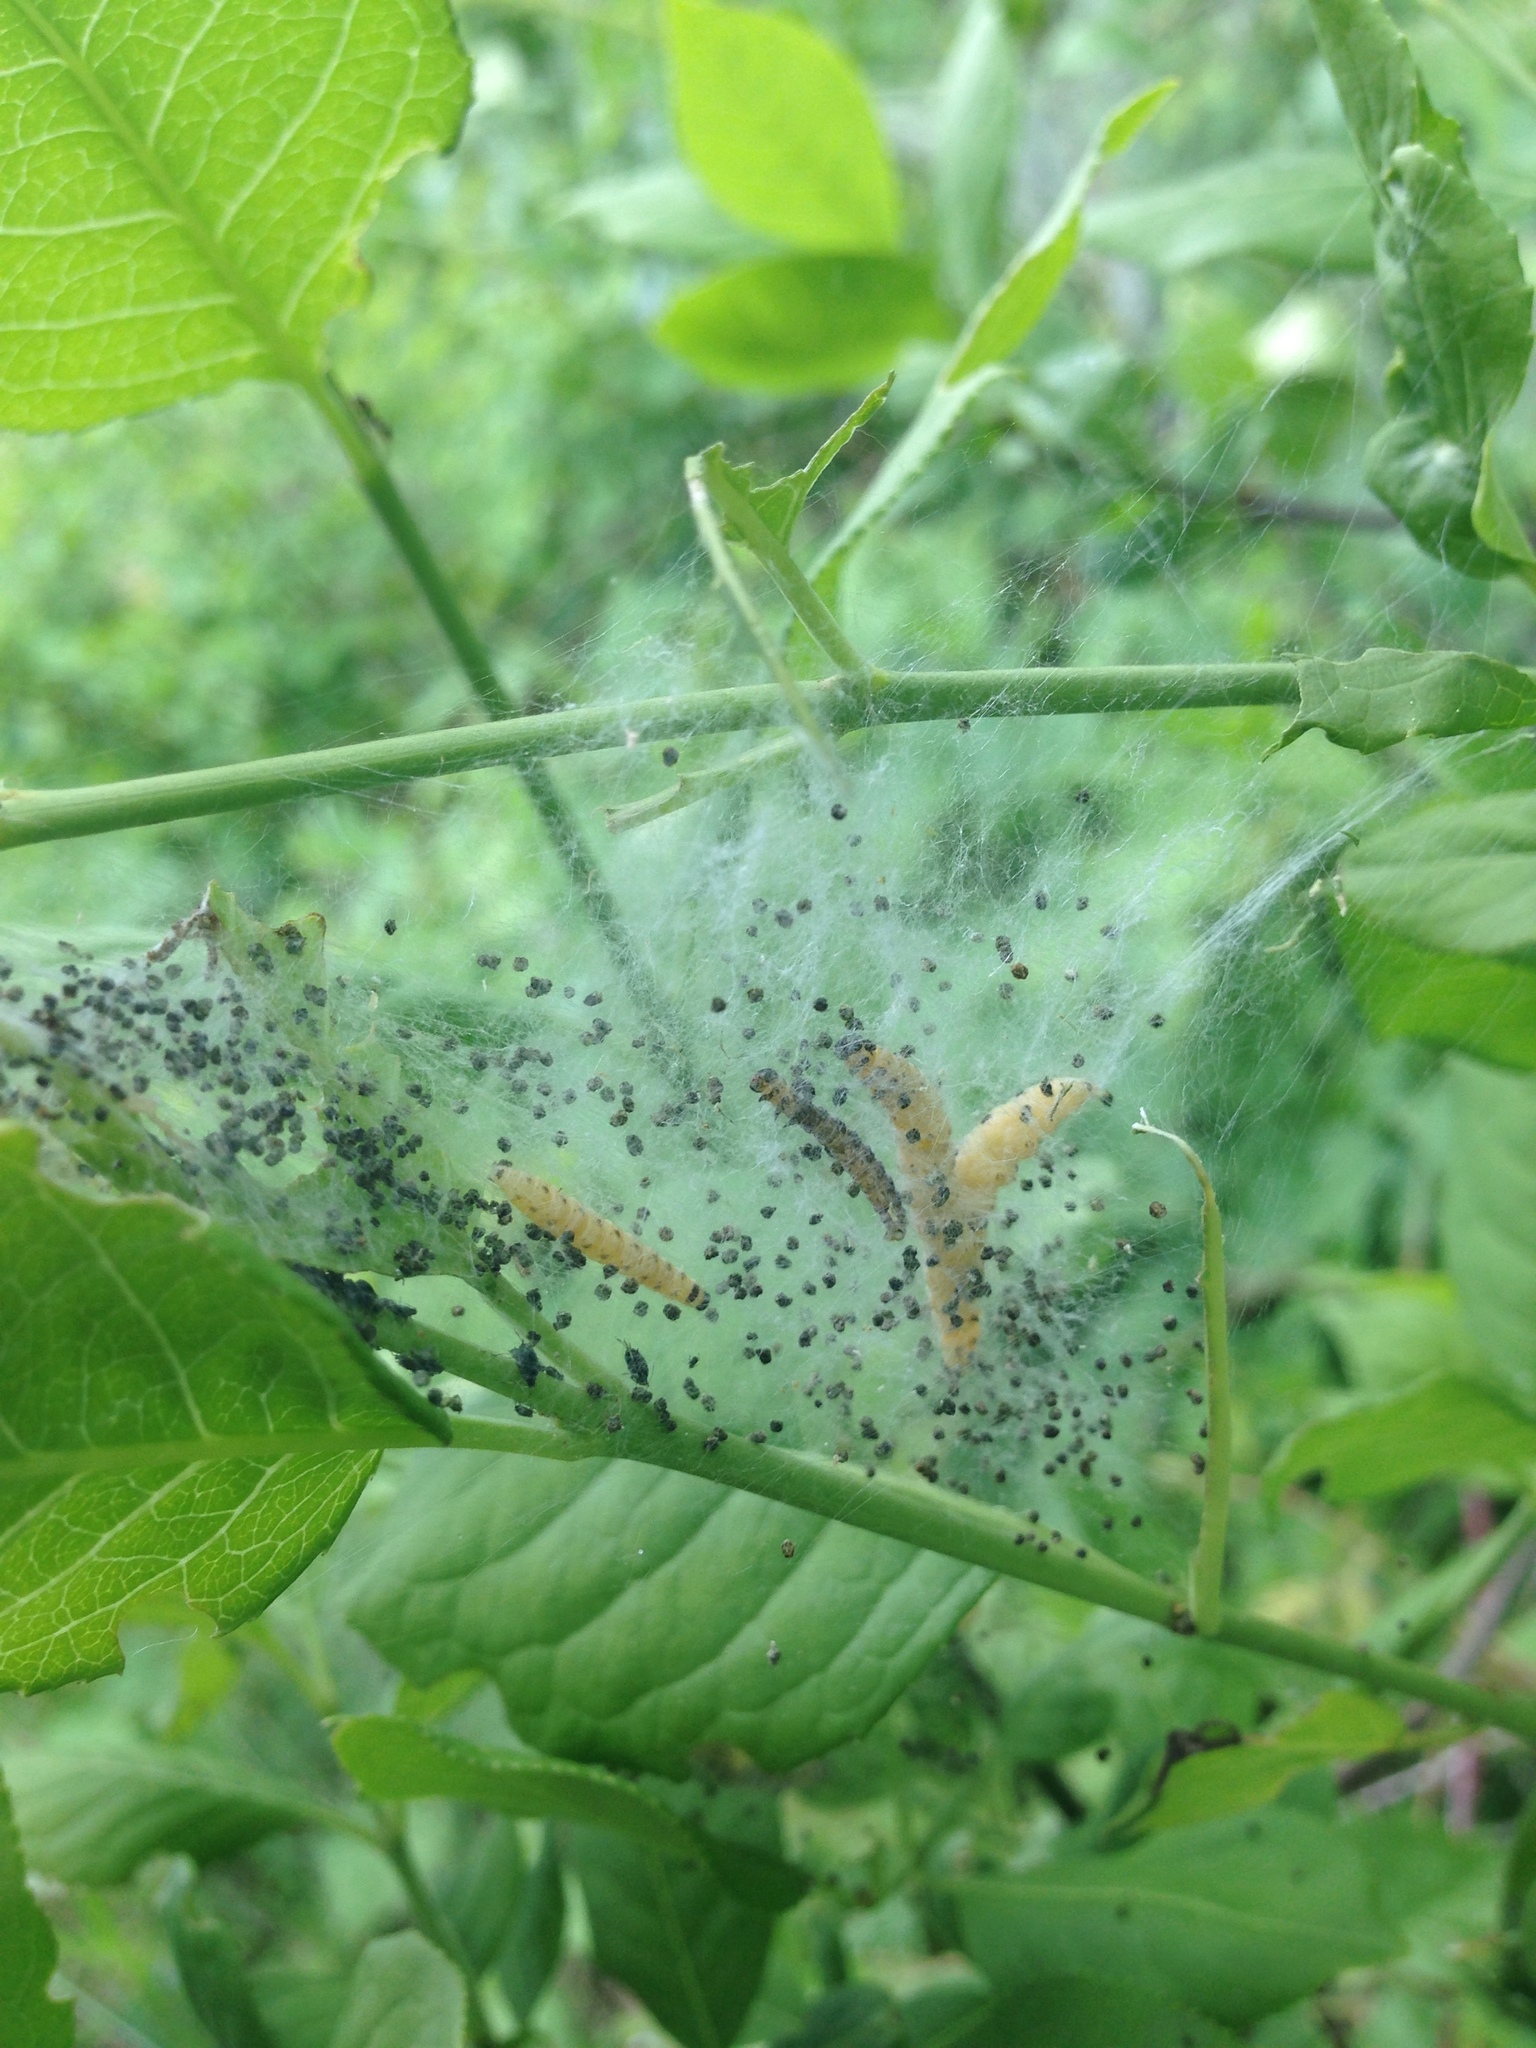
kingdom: Animalia
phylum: Arthropoda
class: Insecta
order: Lepidoptera
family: Yponomeutidae
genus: Yponomeuta
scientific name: Yponomeuta cagnagellus
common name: Spindle ermine
